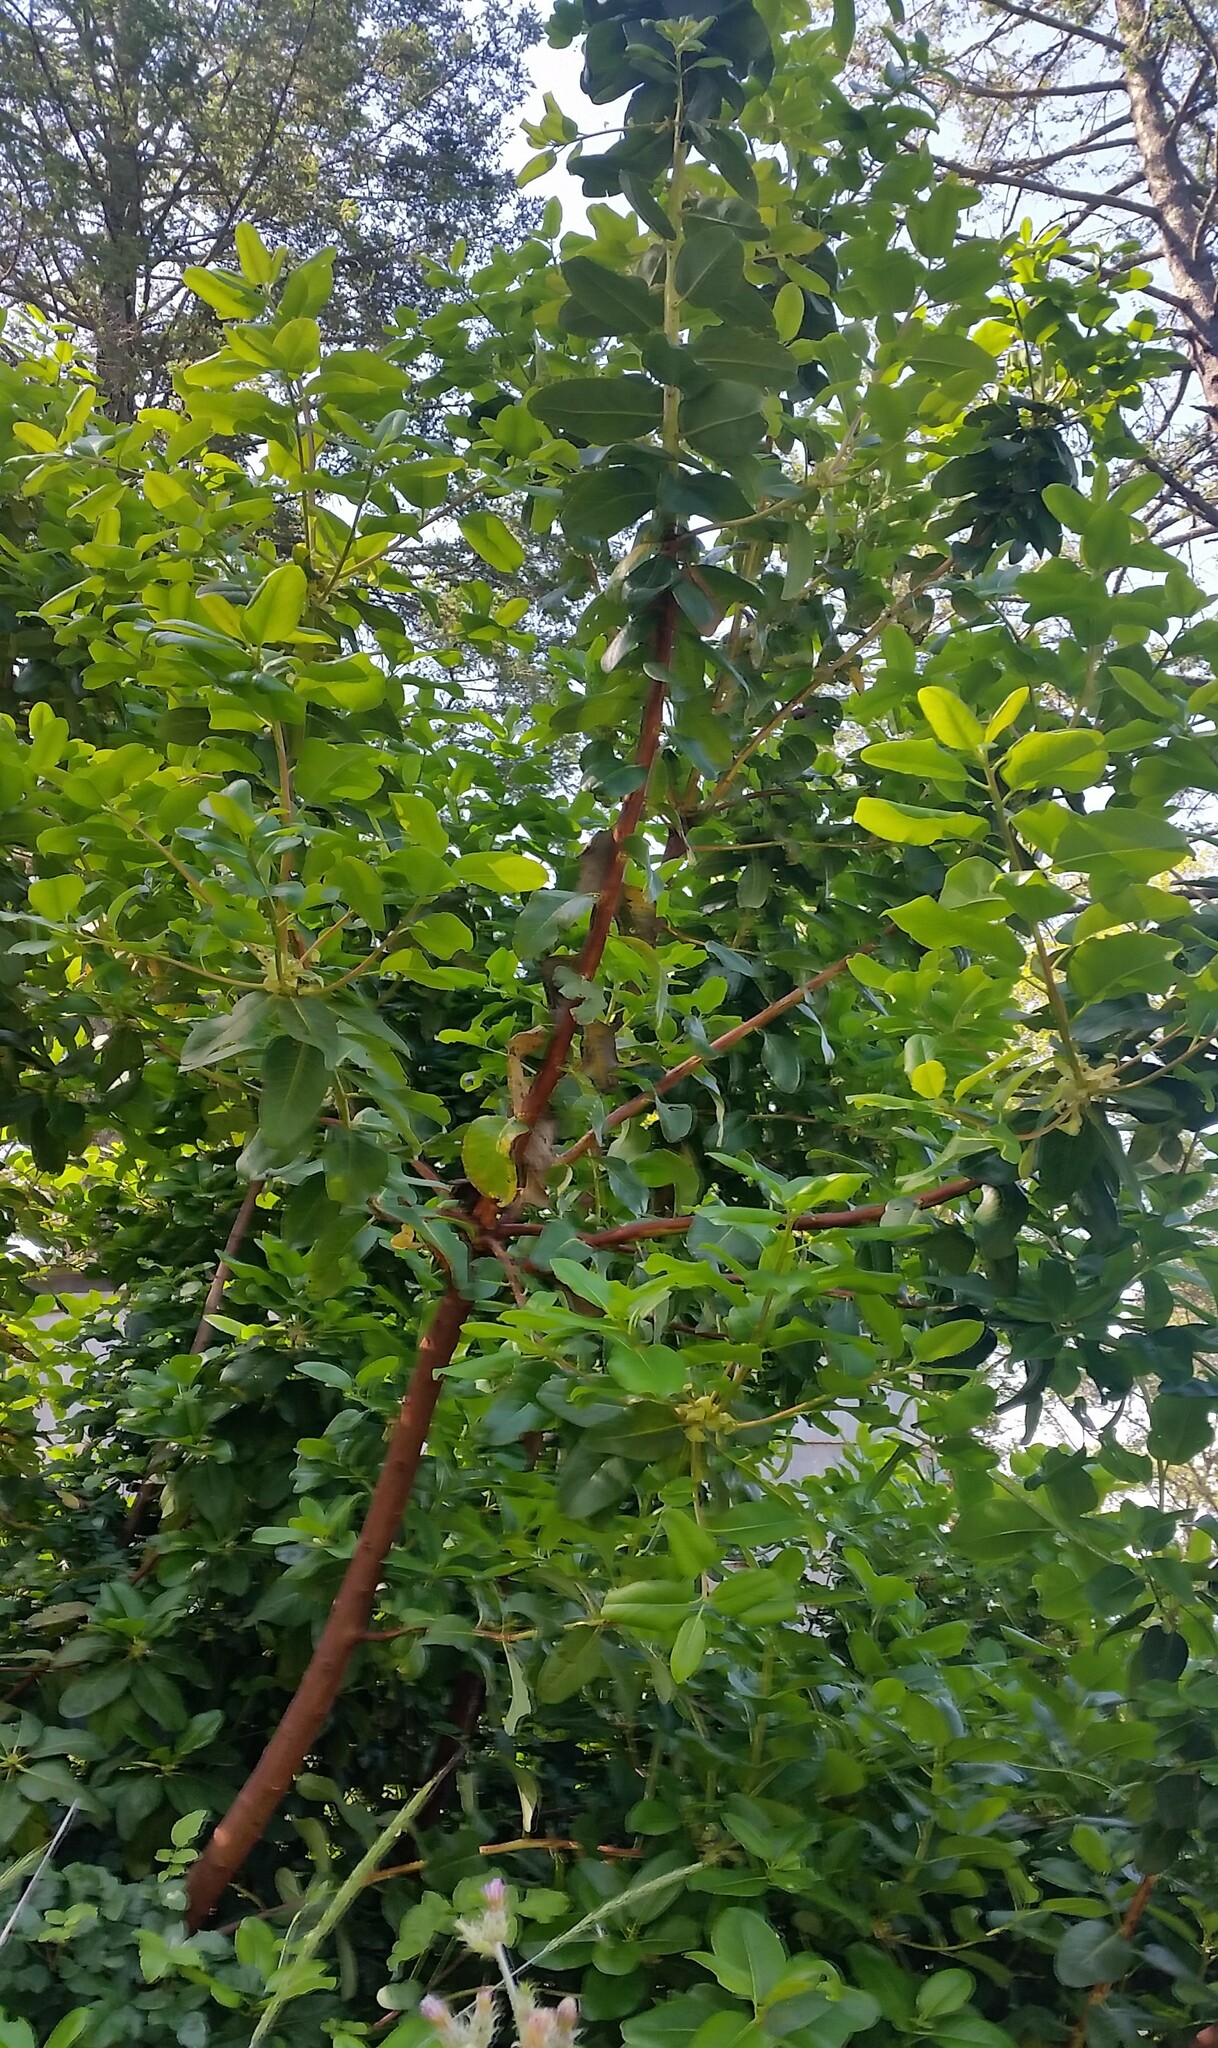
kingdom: Plantae
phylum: Tracheophyta
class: Magnoliopsida
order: Ericales
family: Ericaceae
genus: Arbutus
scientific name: Arbutus menziesii
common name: Pacific madrone
